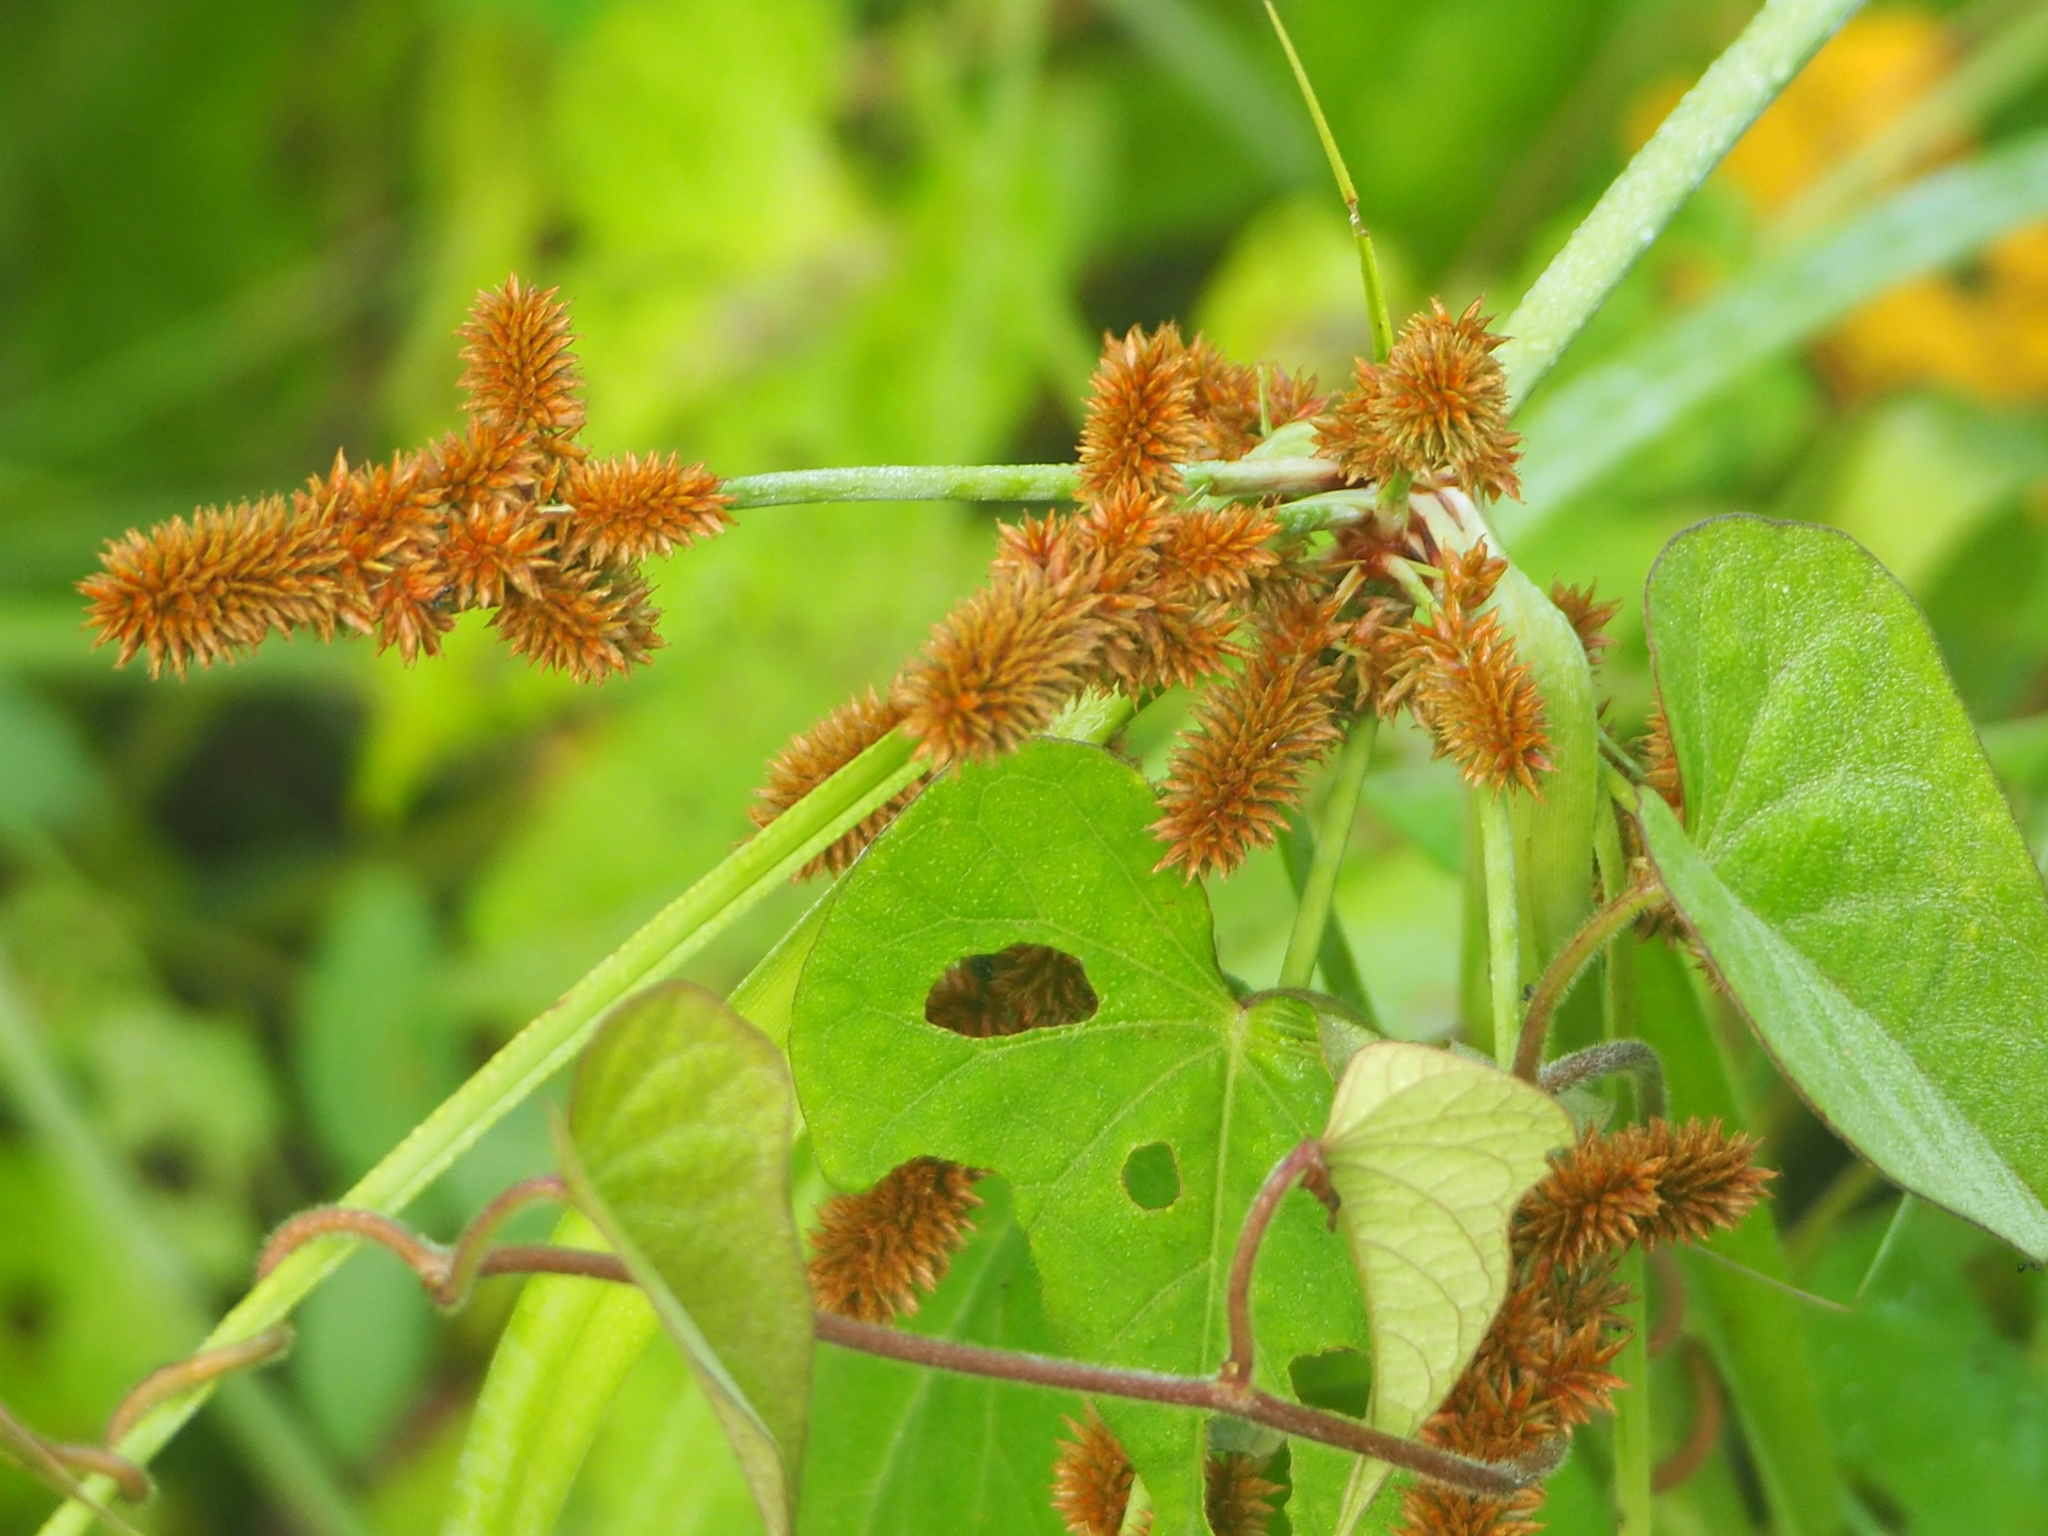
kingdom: Plantae
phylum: Tracheophyta
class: Liliopsida
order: Poales
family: Cyperaceae
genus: Cyperus
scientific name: Cyperus ligularis
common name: Swamp flat sedge
